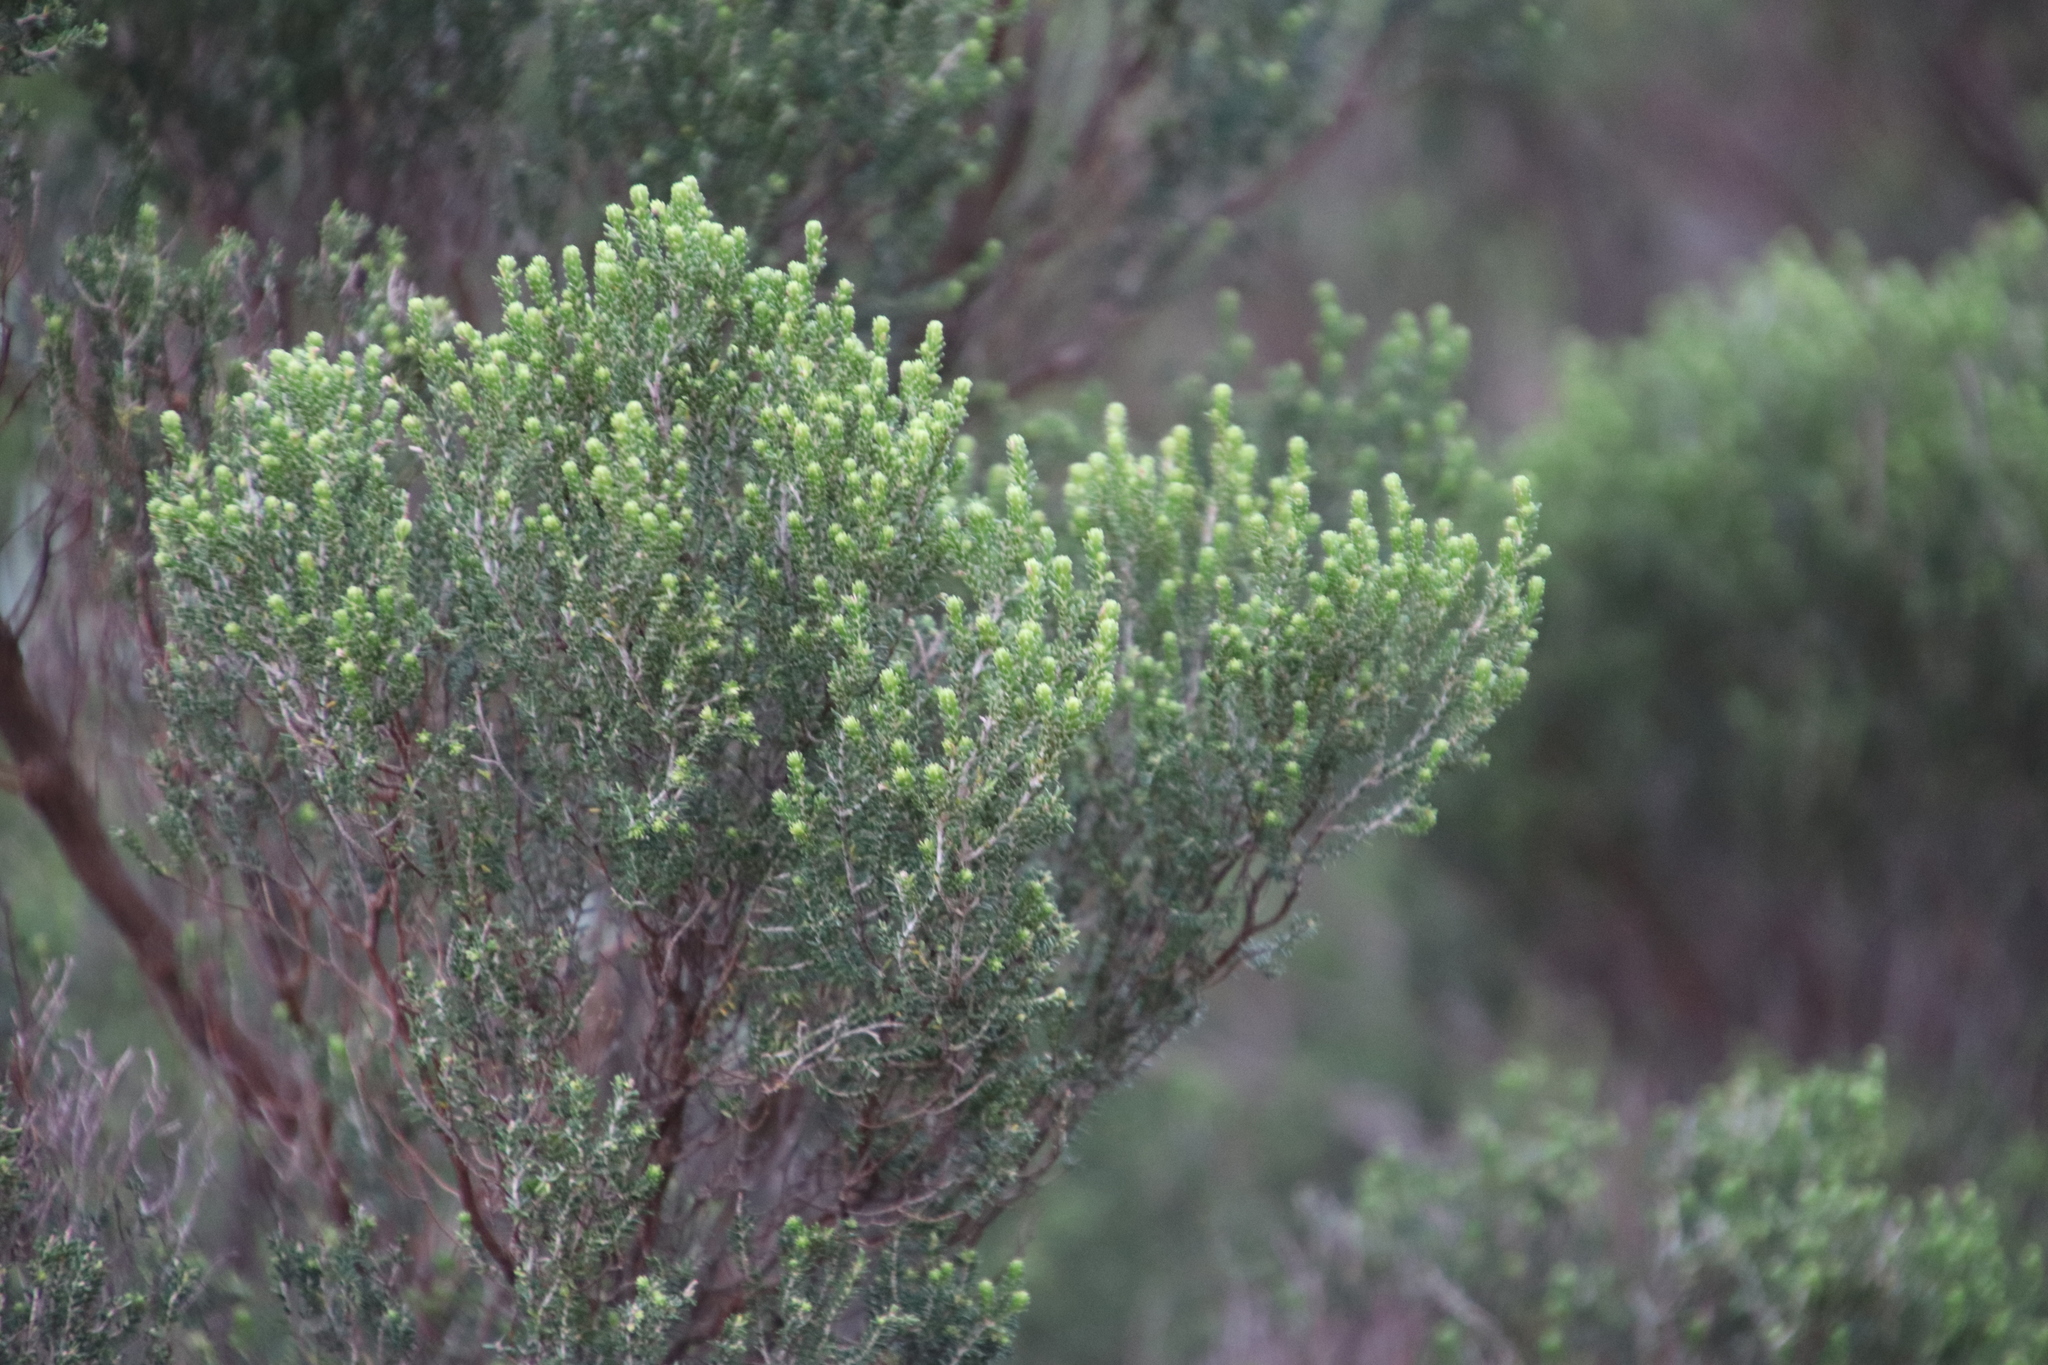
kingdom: Plantae
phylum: Tracheophyta
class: Magnoliopsida
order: Ericales
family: Ericaceae
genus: Erica
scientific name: Erica tristis
